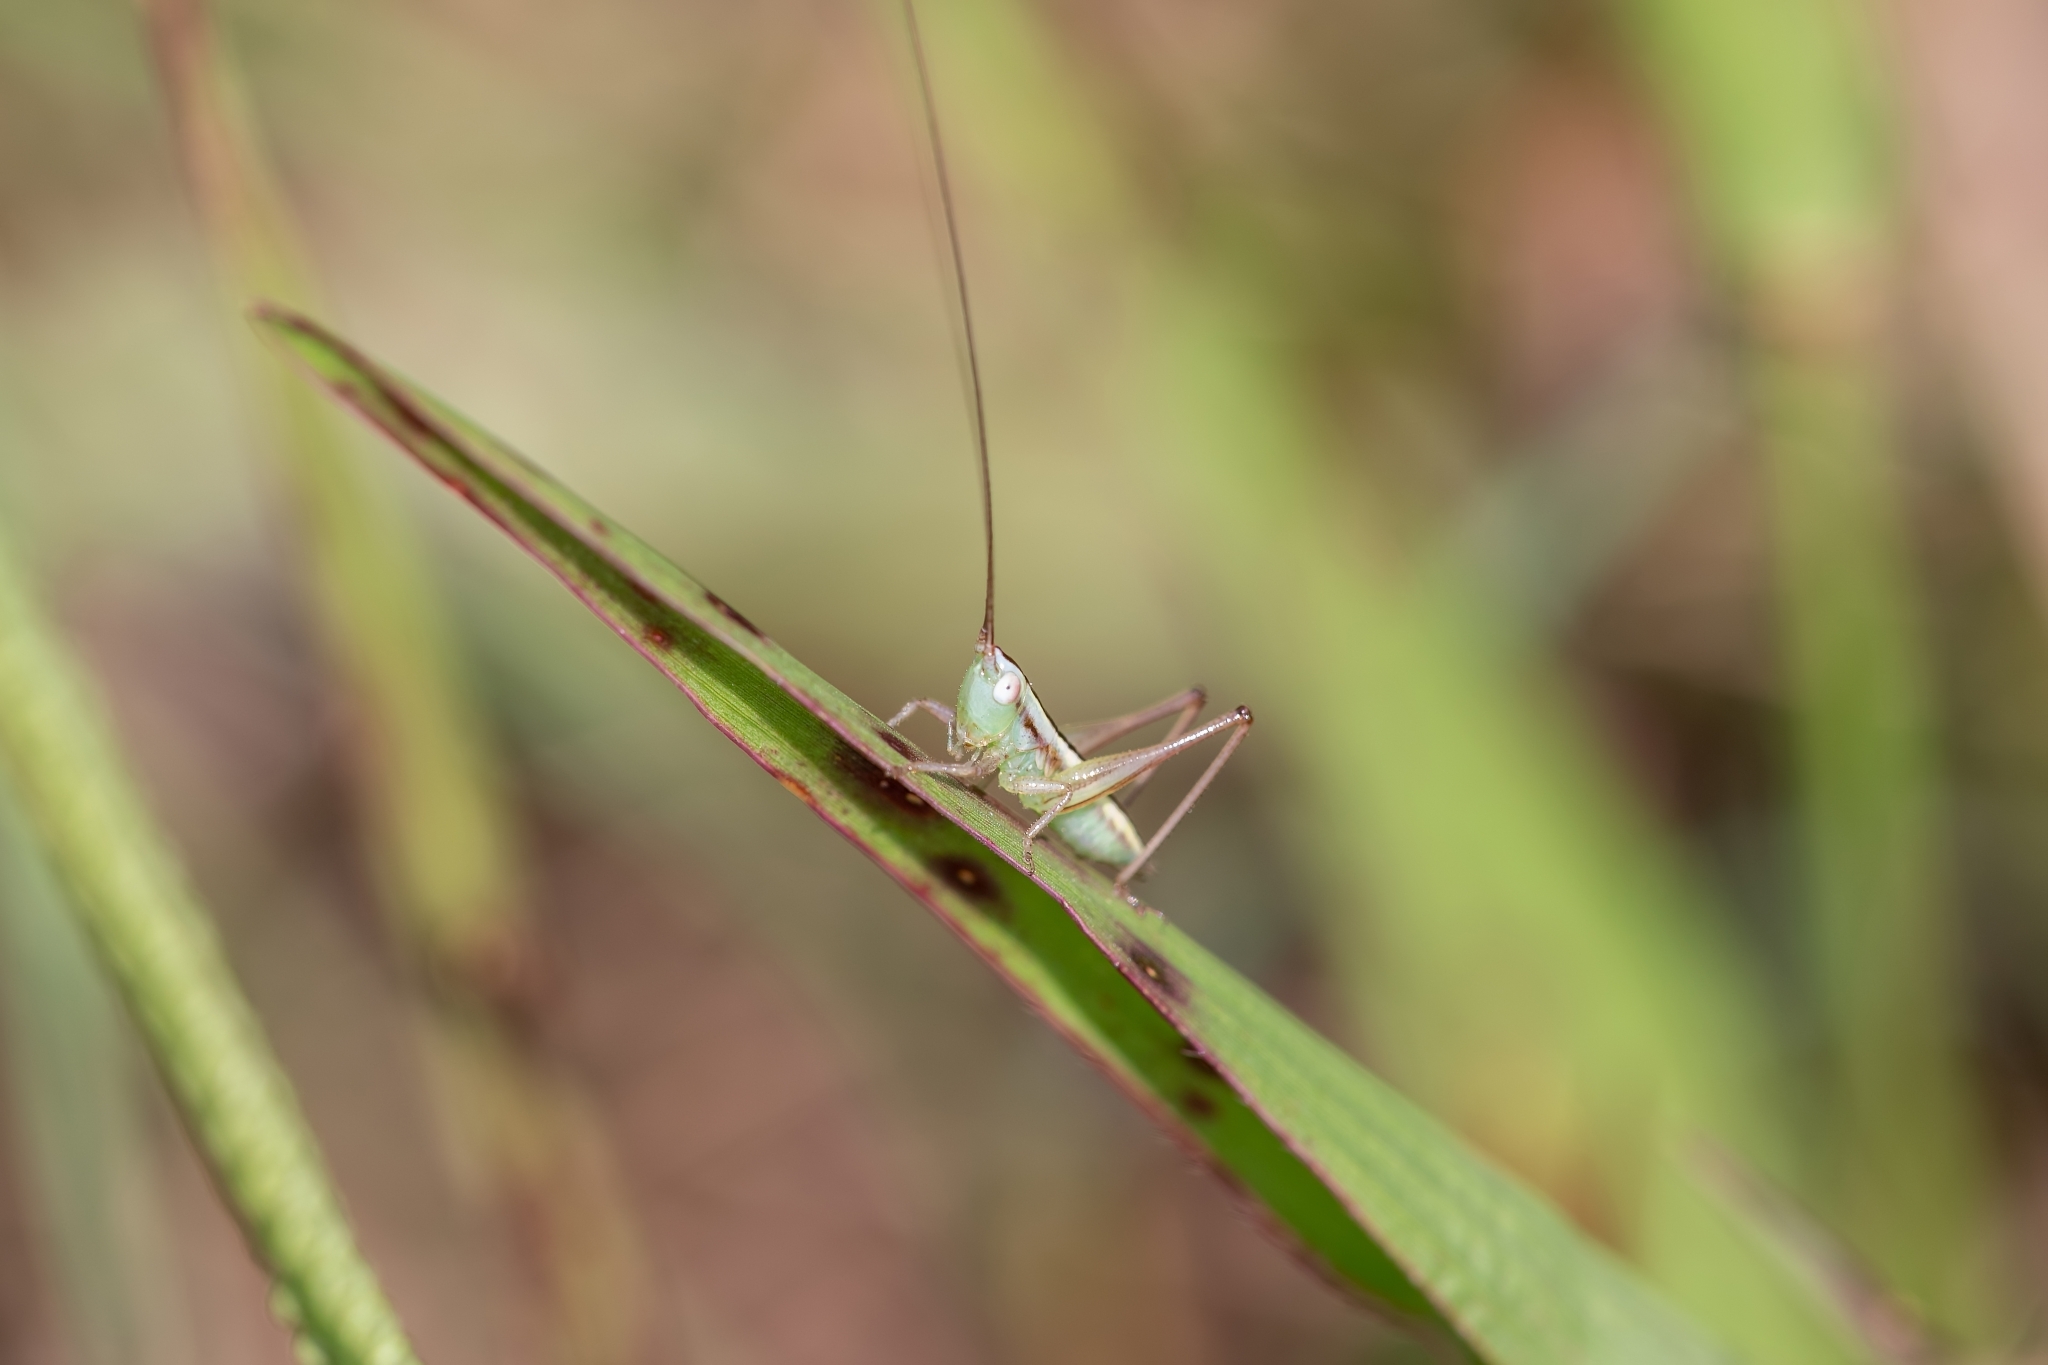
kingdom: Animalia
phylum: Arthropoda
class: Insecta
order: Orthoptera
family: Tettigoniidae
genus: Conocephalus
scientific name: Conocephalus gracillimus
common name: Graceful meadow katydid
